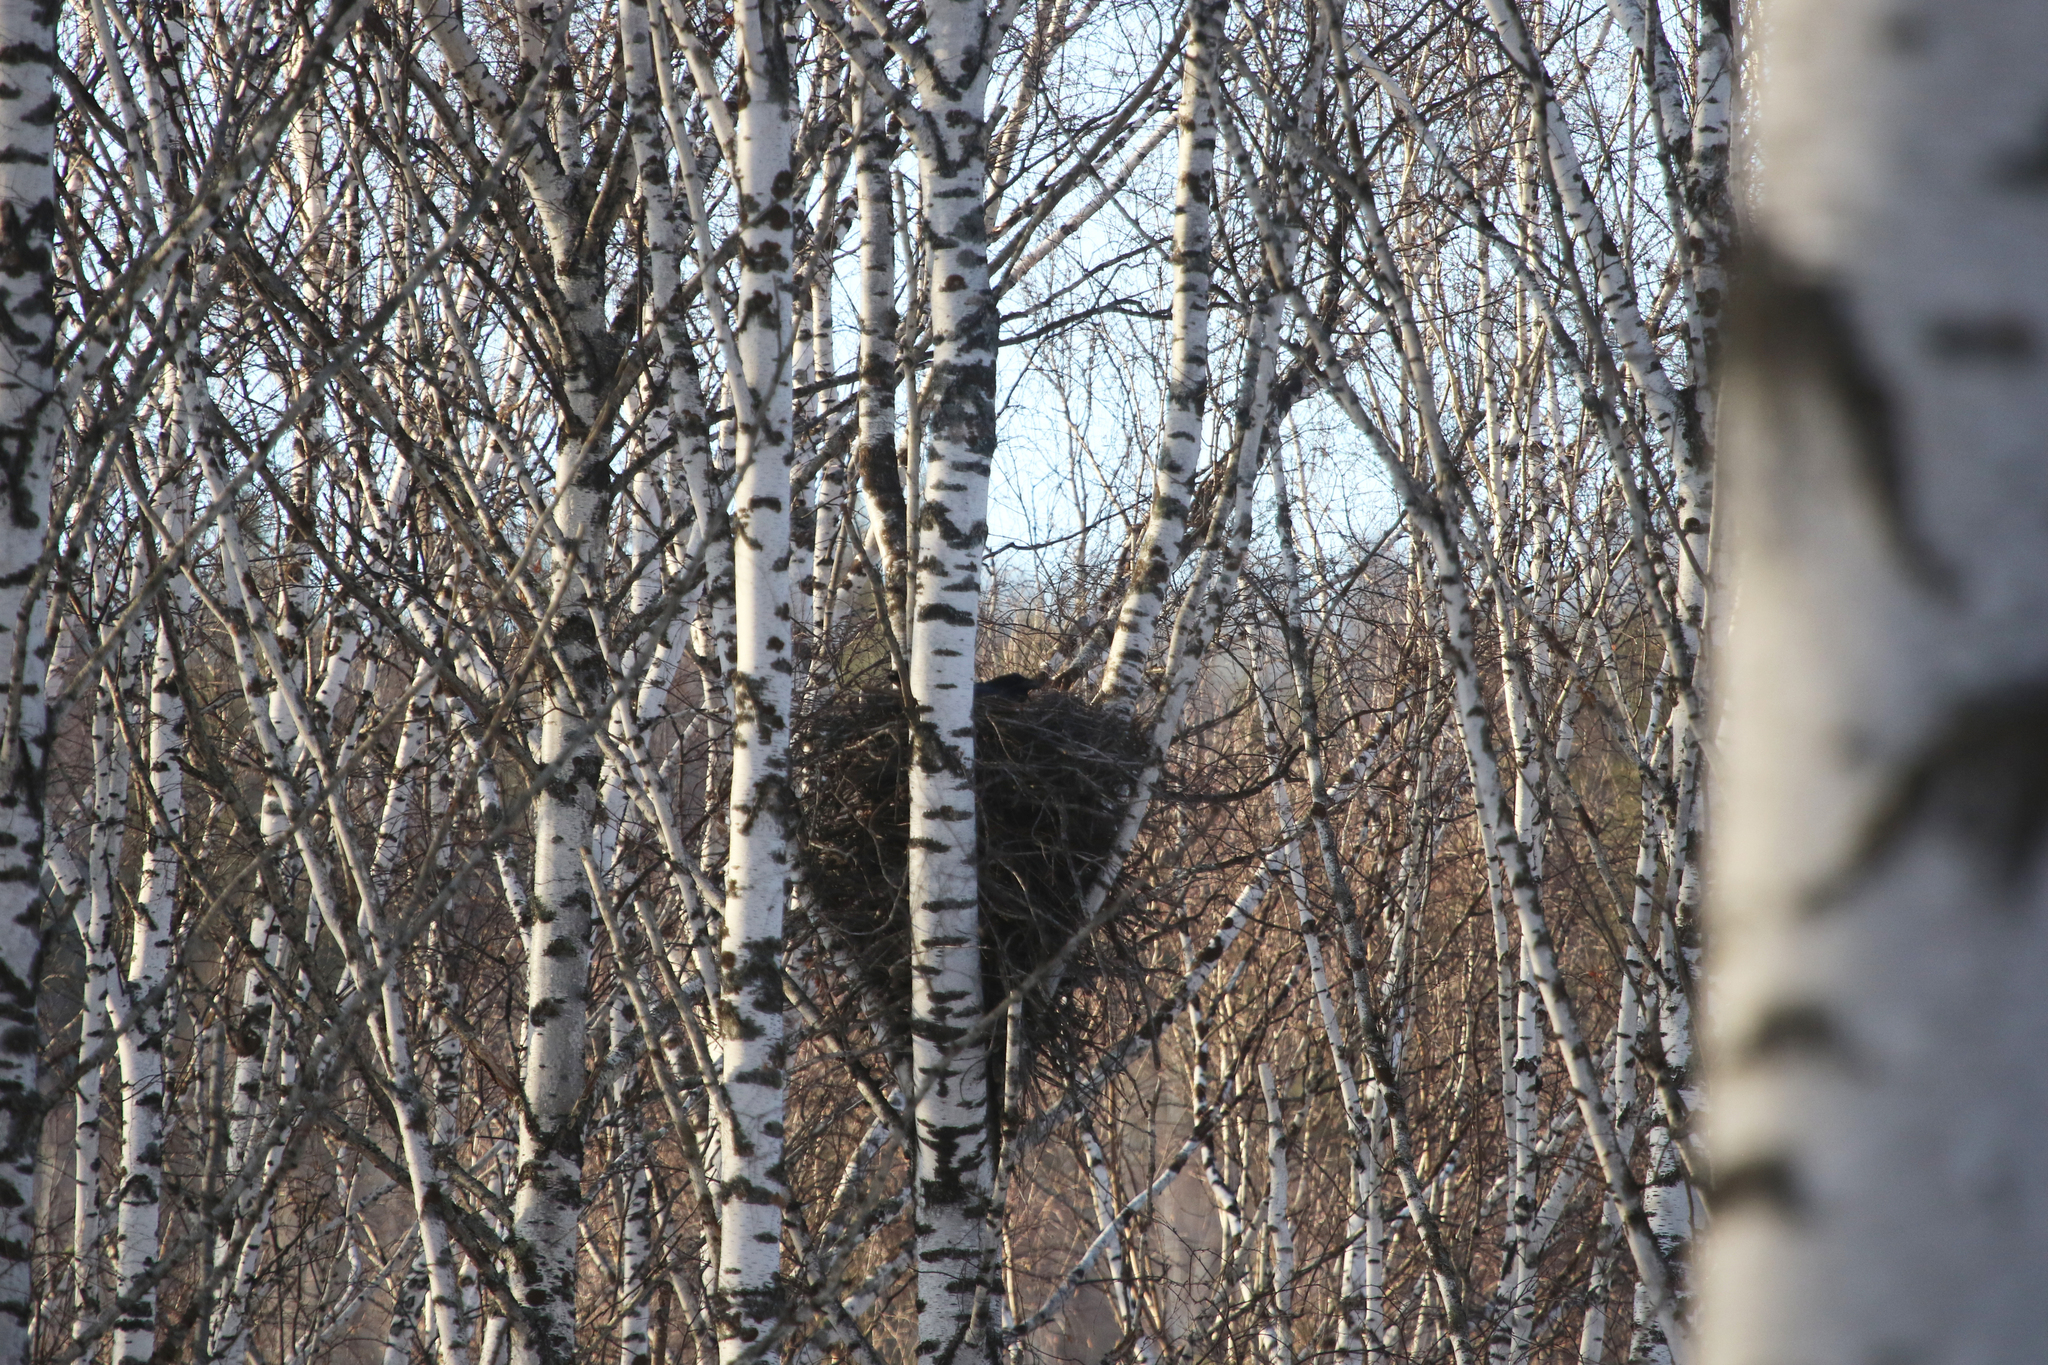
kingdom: Animalia
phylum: Chordata
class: Aves
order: Passeriformes
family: Corvidae
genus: Corvus
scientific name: Corvus corax
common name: Common raven
